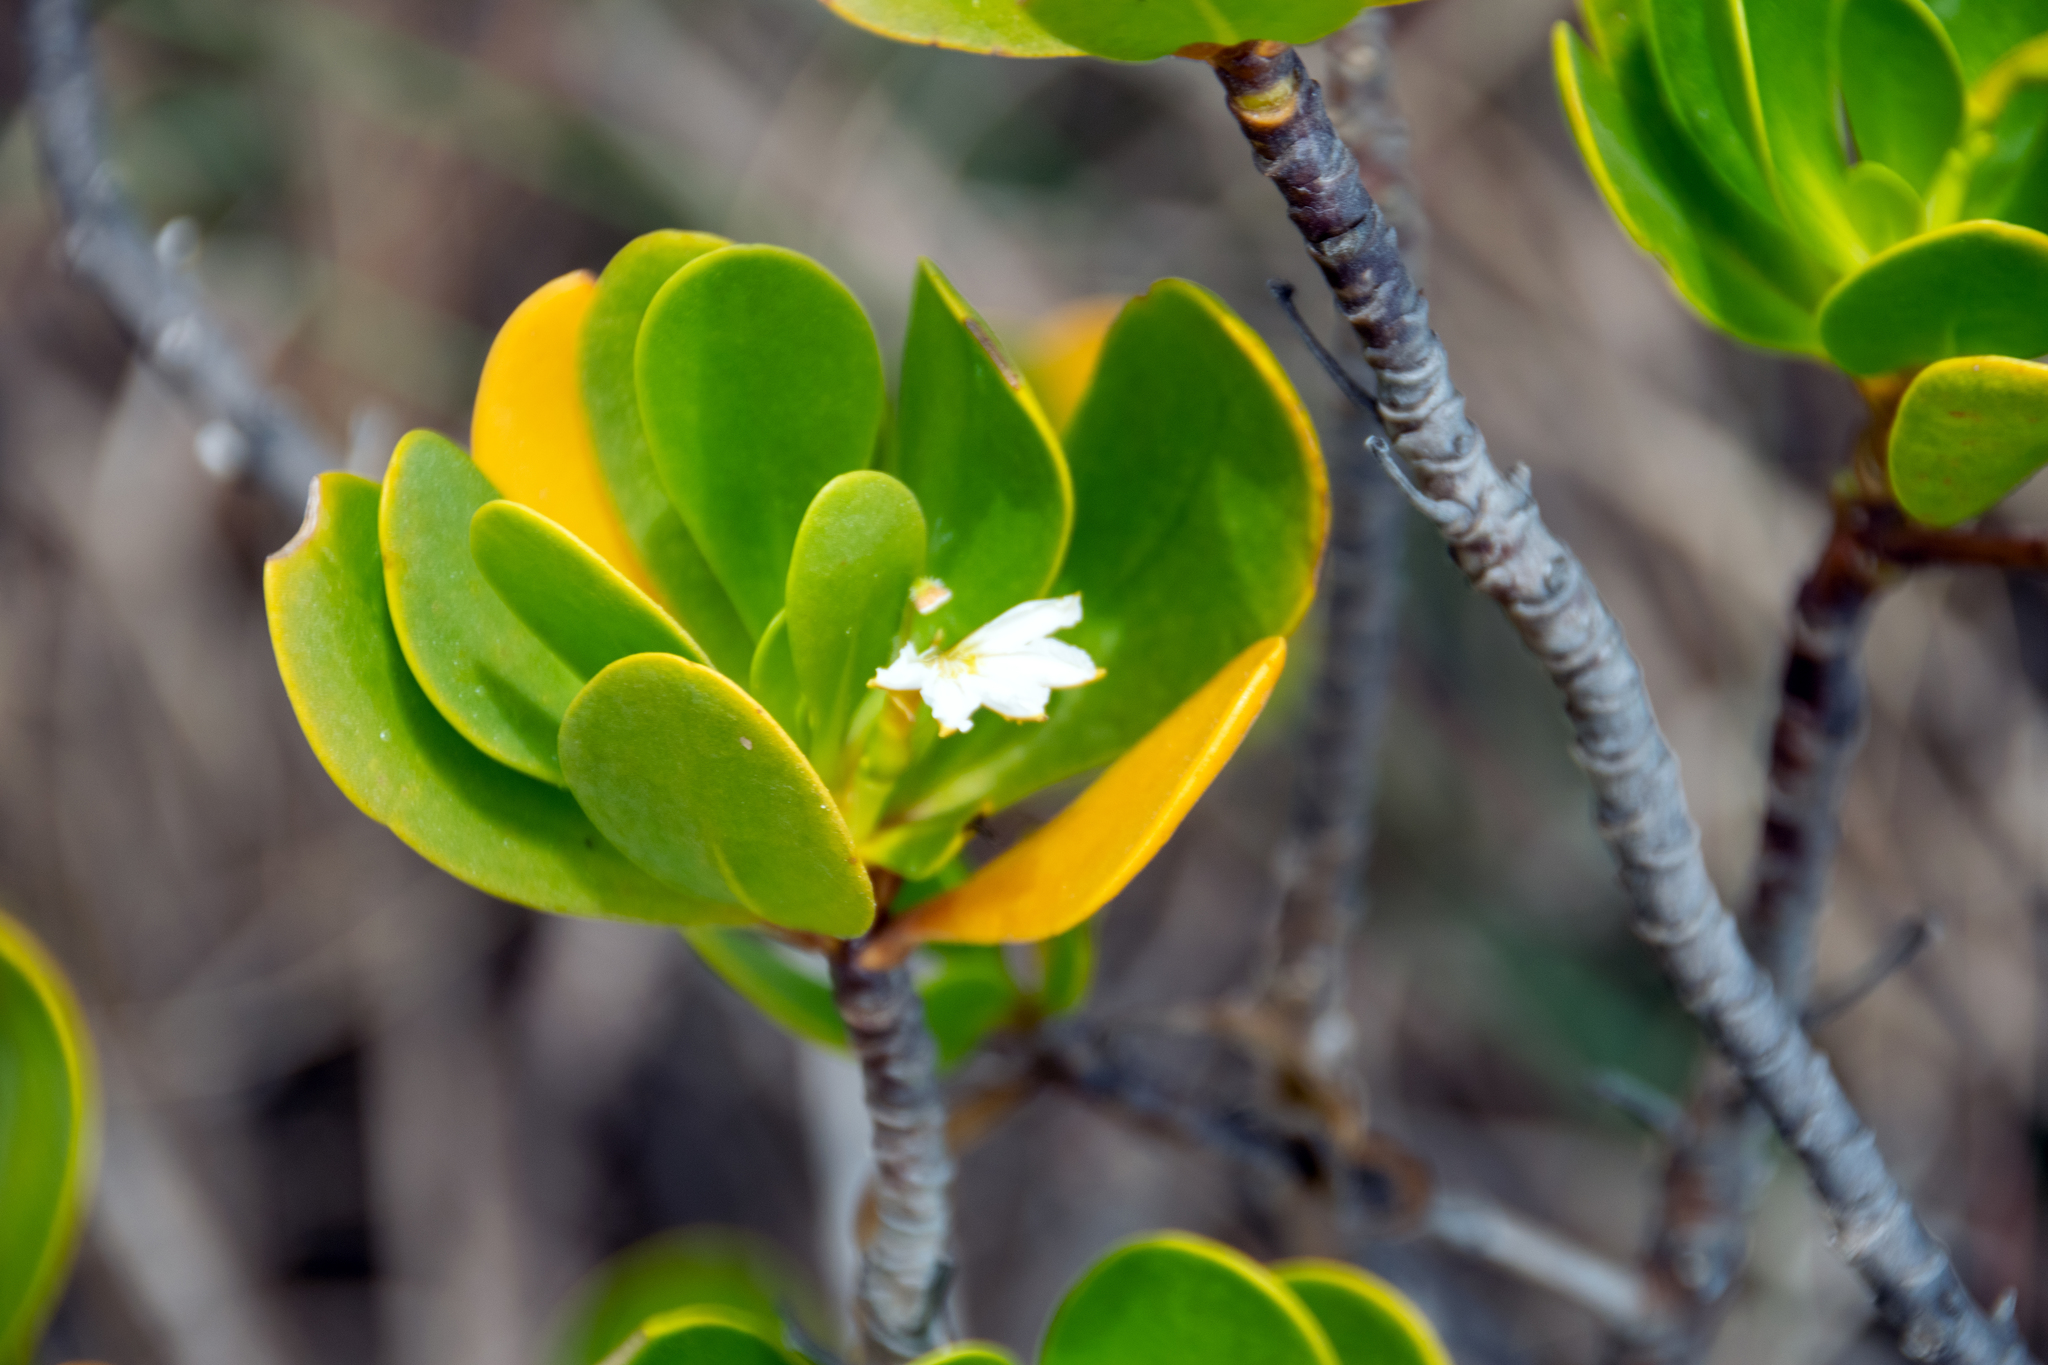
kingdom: Plantae
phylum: Tracheophyta
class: Magnoliopsida
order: Asterales
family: Goodeniaceae
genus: Scaevola
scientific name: Scaevola plumieri
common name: Gull feed
